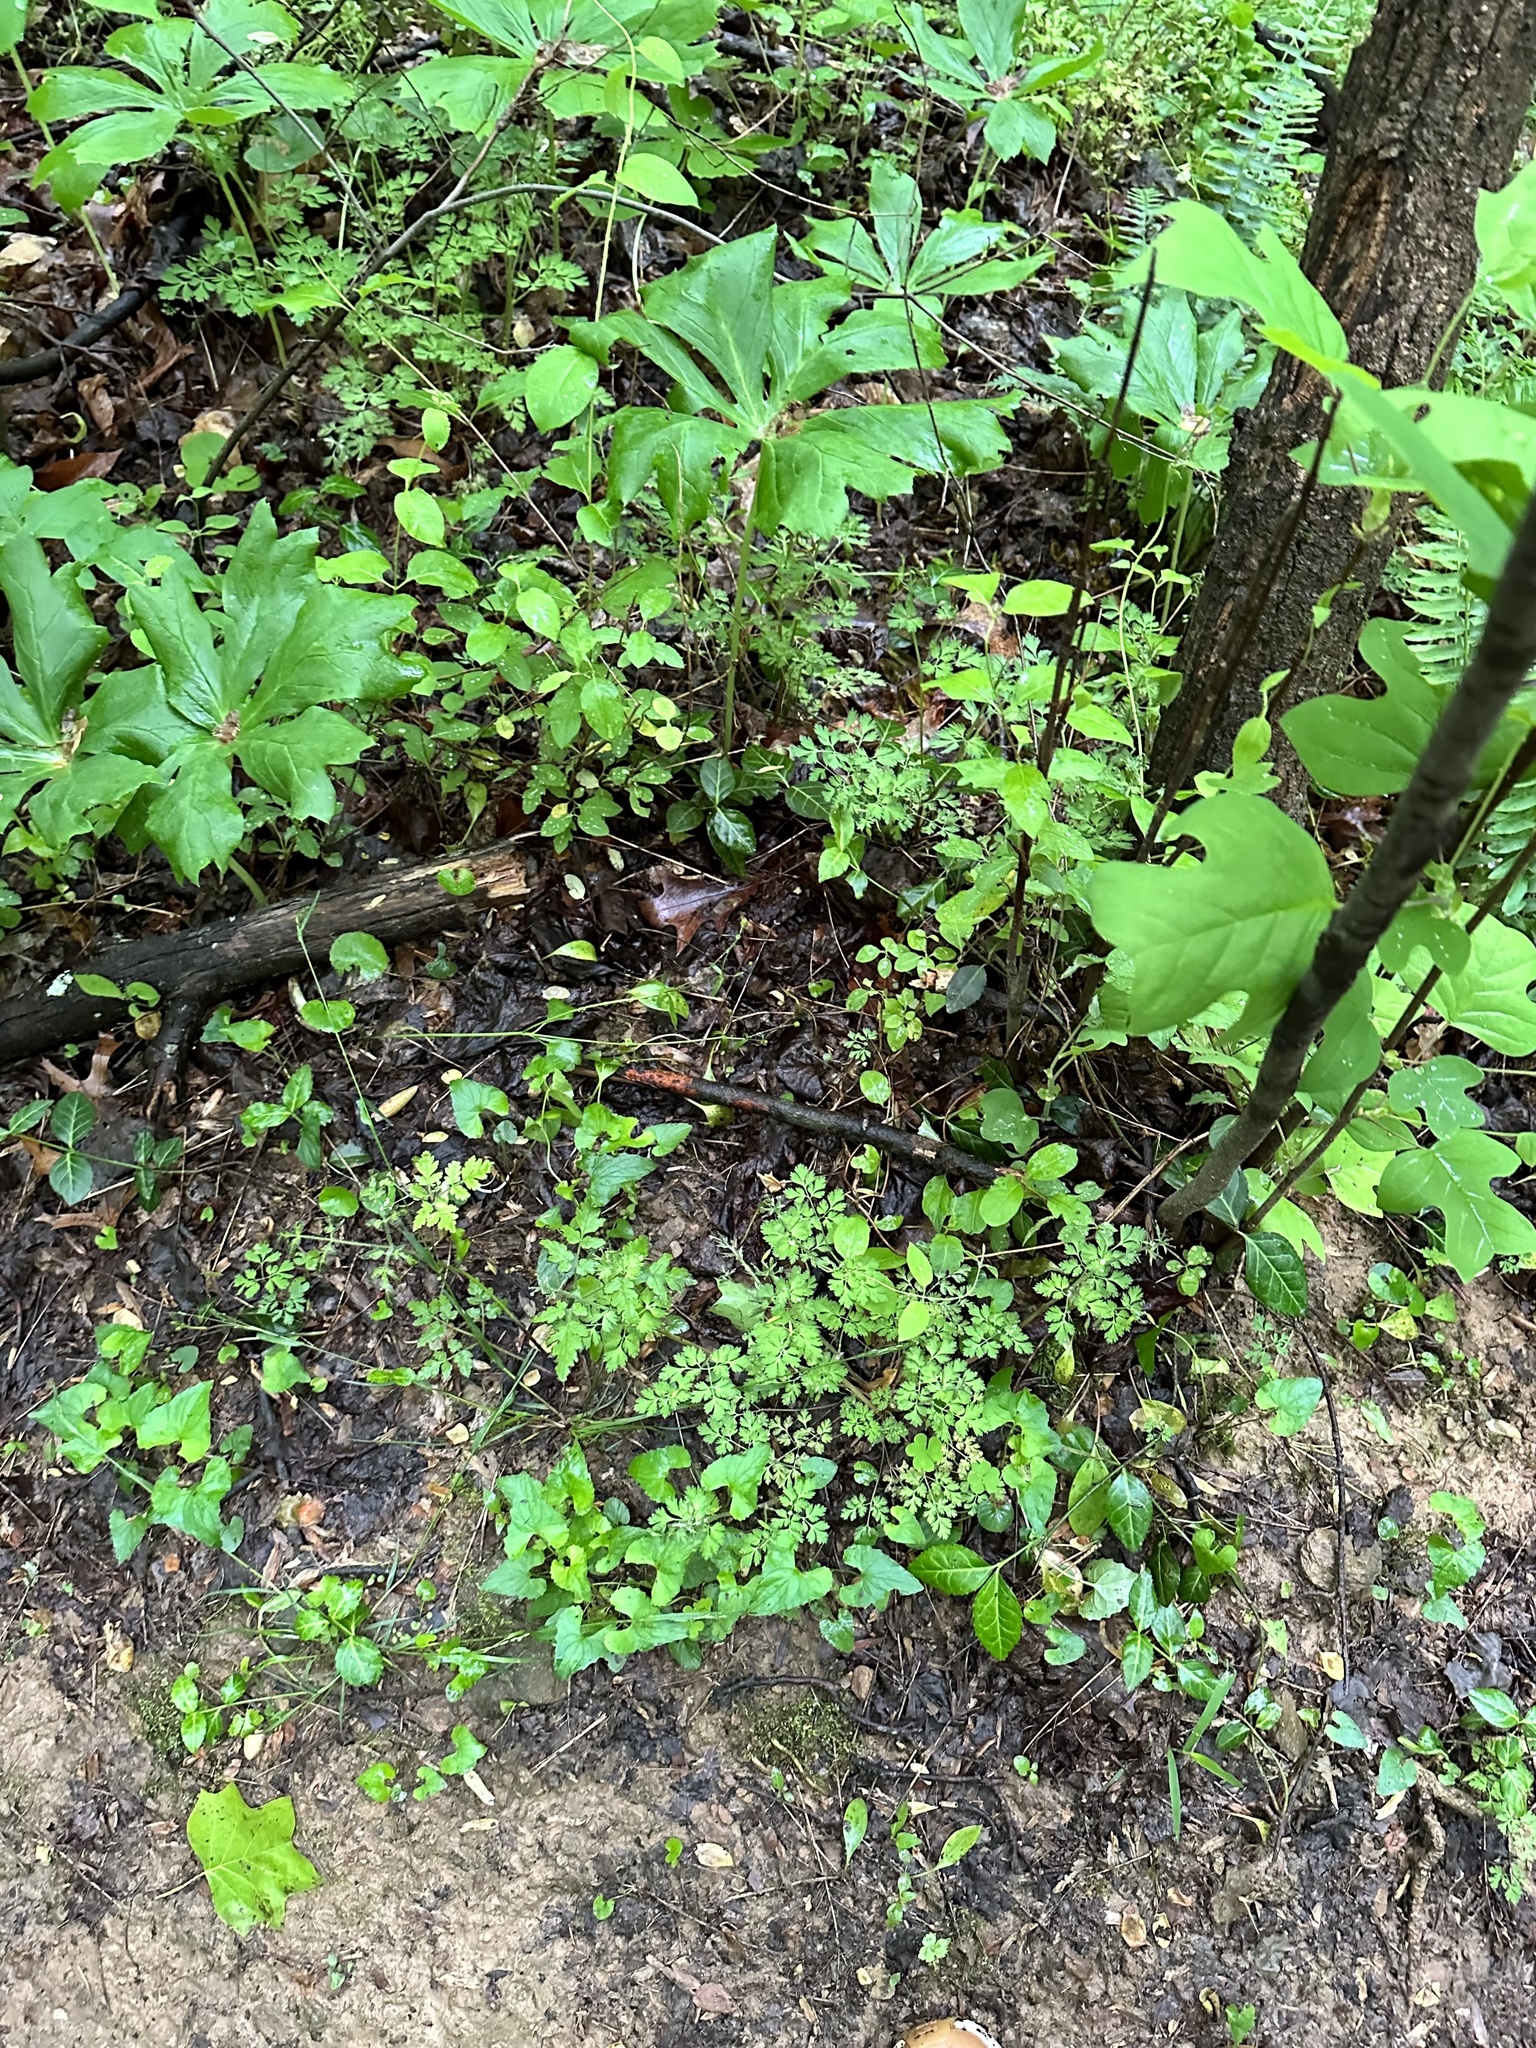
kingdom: Plantae
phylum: Tracheophyta
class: Magnoliopsida
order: Ranunculales
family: Papaveraceae
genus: Corydalis
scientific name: Corydalis incisa
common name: Incised fumewort
